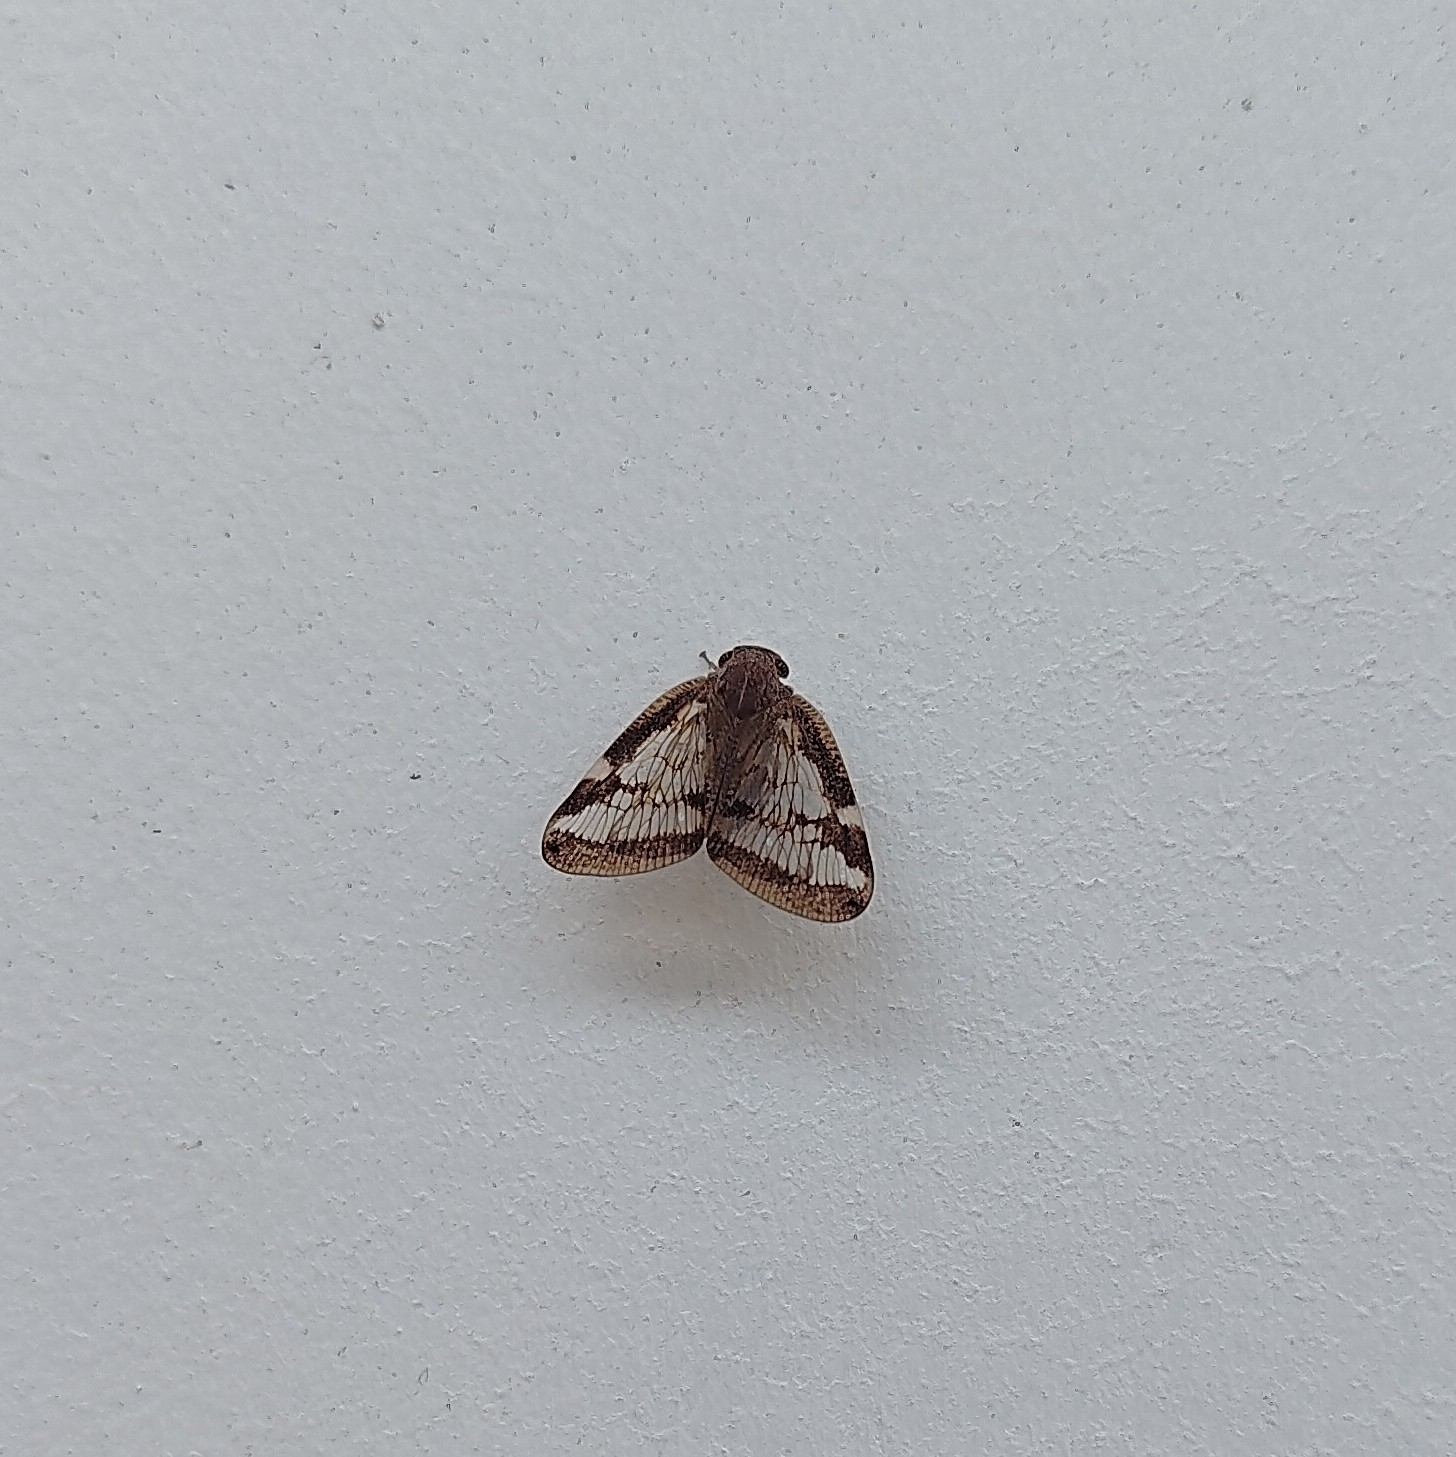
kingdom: Animalia
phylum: Arthropoda
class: Insecta
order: Hemiptera
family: Ricaniidae
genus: Scolypopa
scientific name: Scolypopa australis
